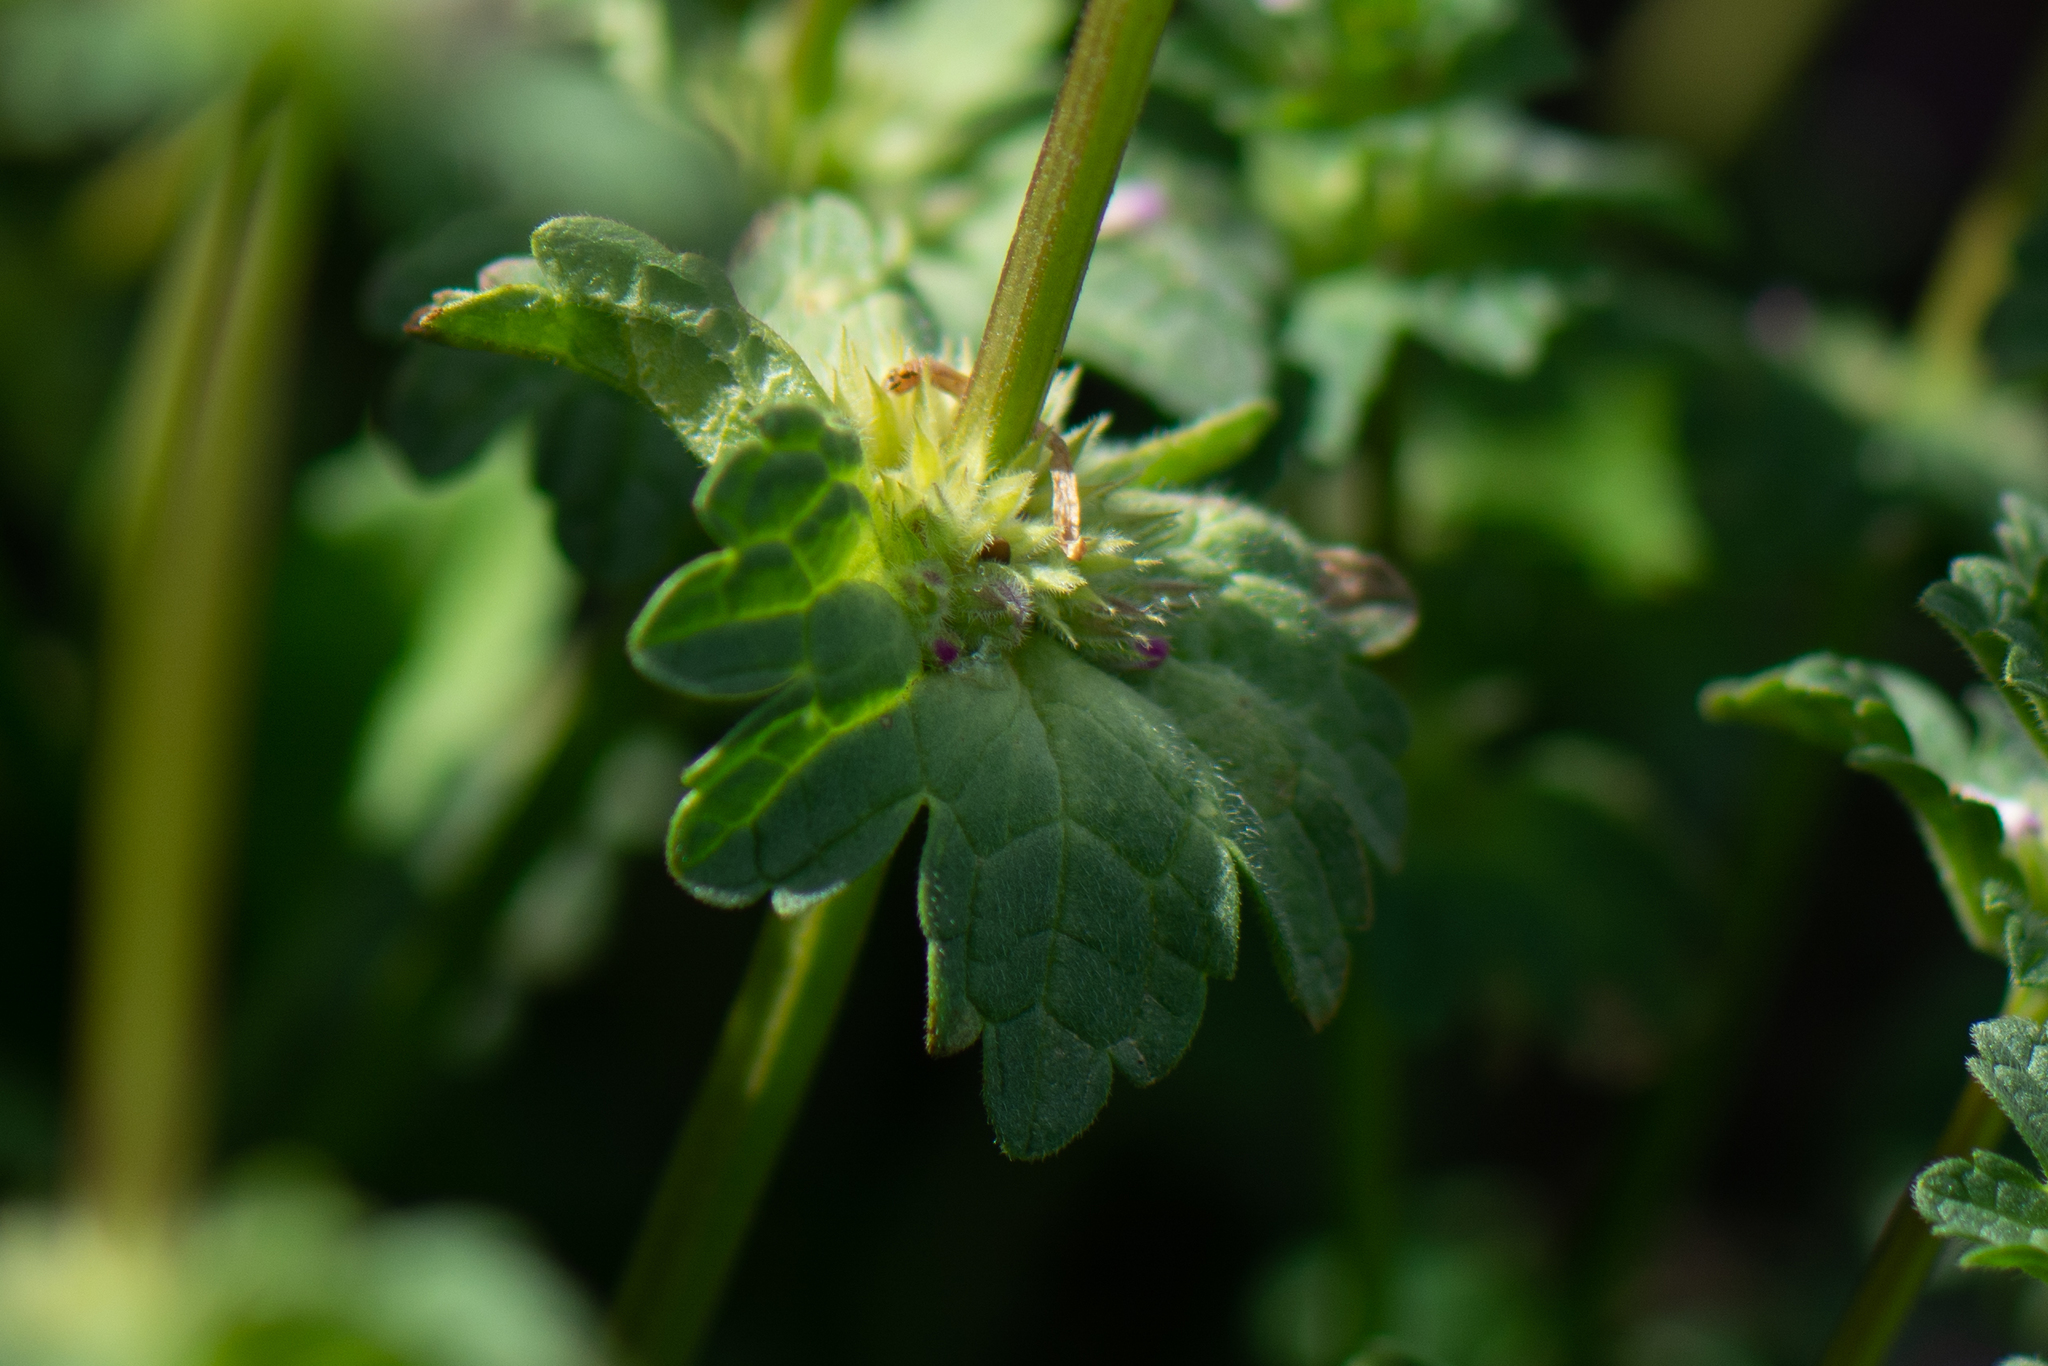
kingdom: Plantae
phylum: Tracheophyta
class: Magnoliopsida
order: Lamiales
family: Lamiaceae
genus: Lamium
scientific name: Lamium amplexicaule
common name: Henbit dead-nettle
